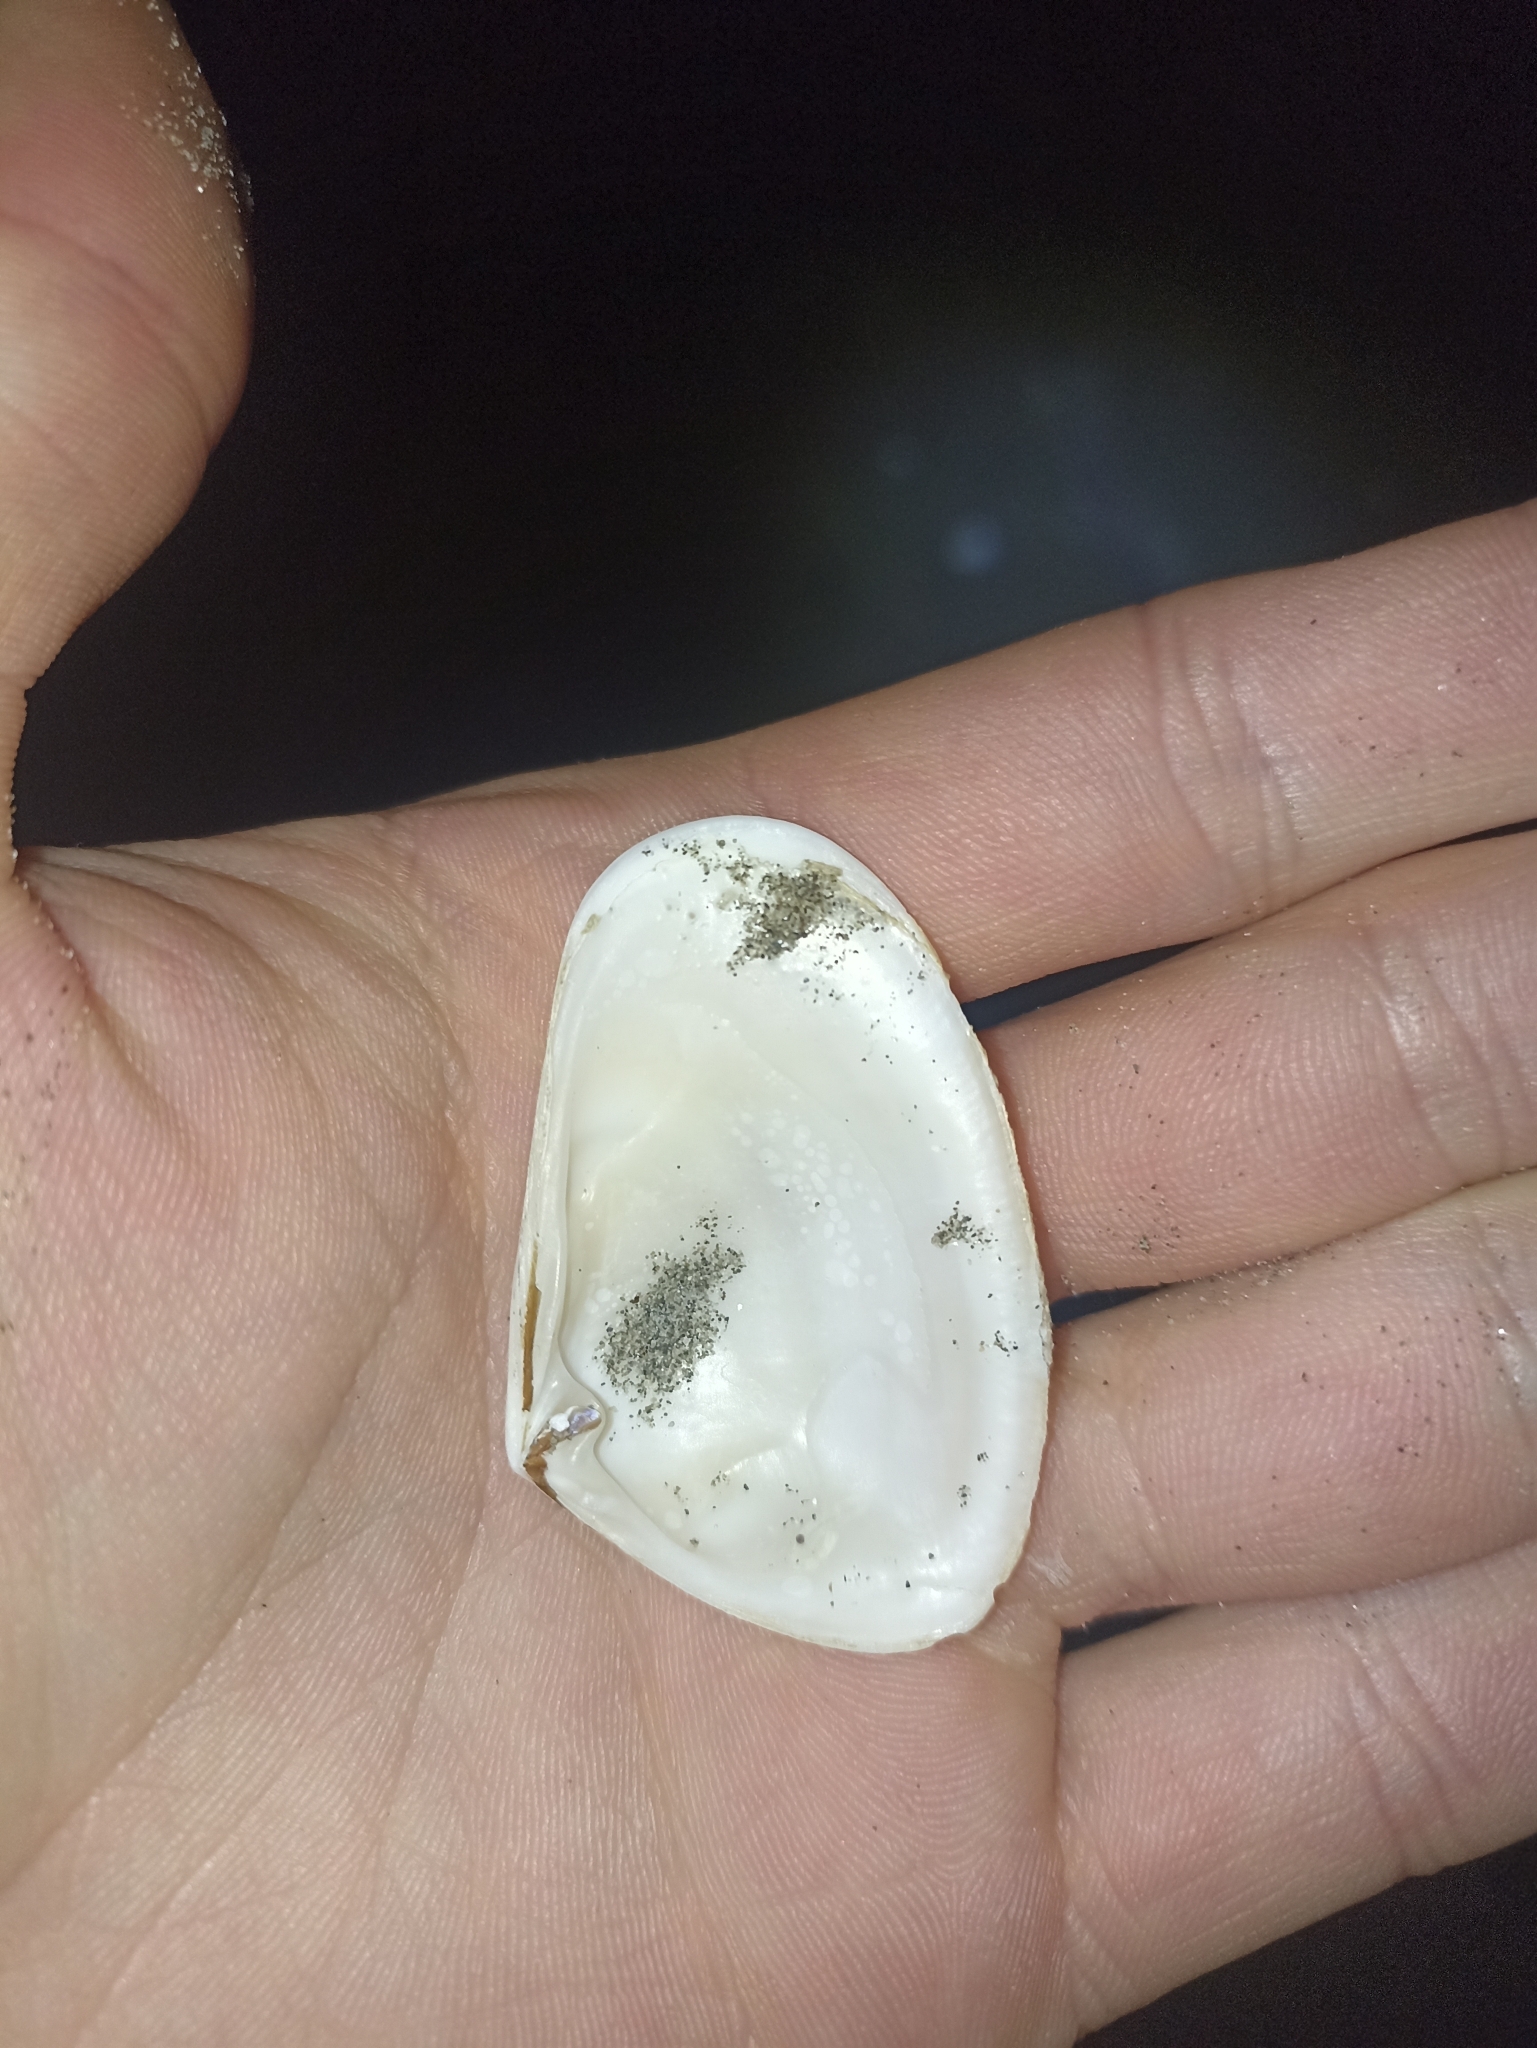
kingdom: Animalia
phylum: Mollusca
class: Bivalvia
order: Venerida
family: Mesodesmatidae
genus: Paphies
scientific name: Paphies subtriangulata
